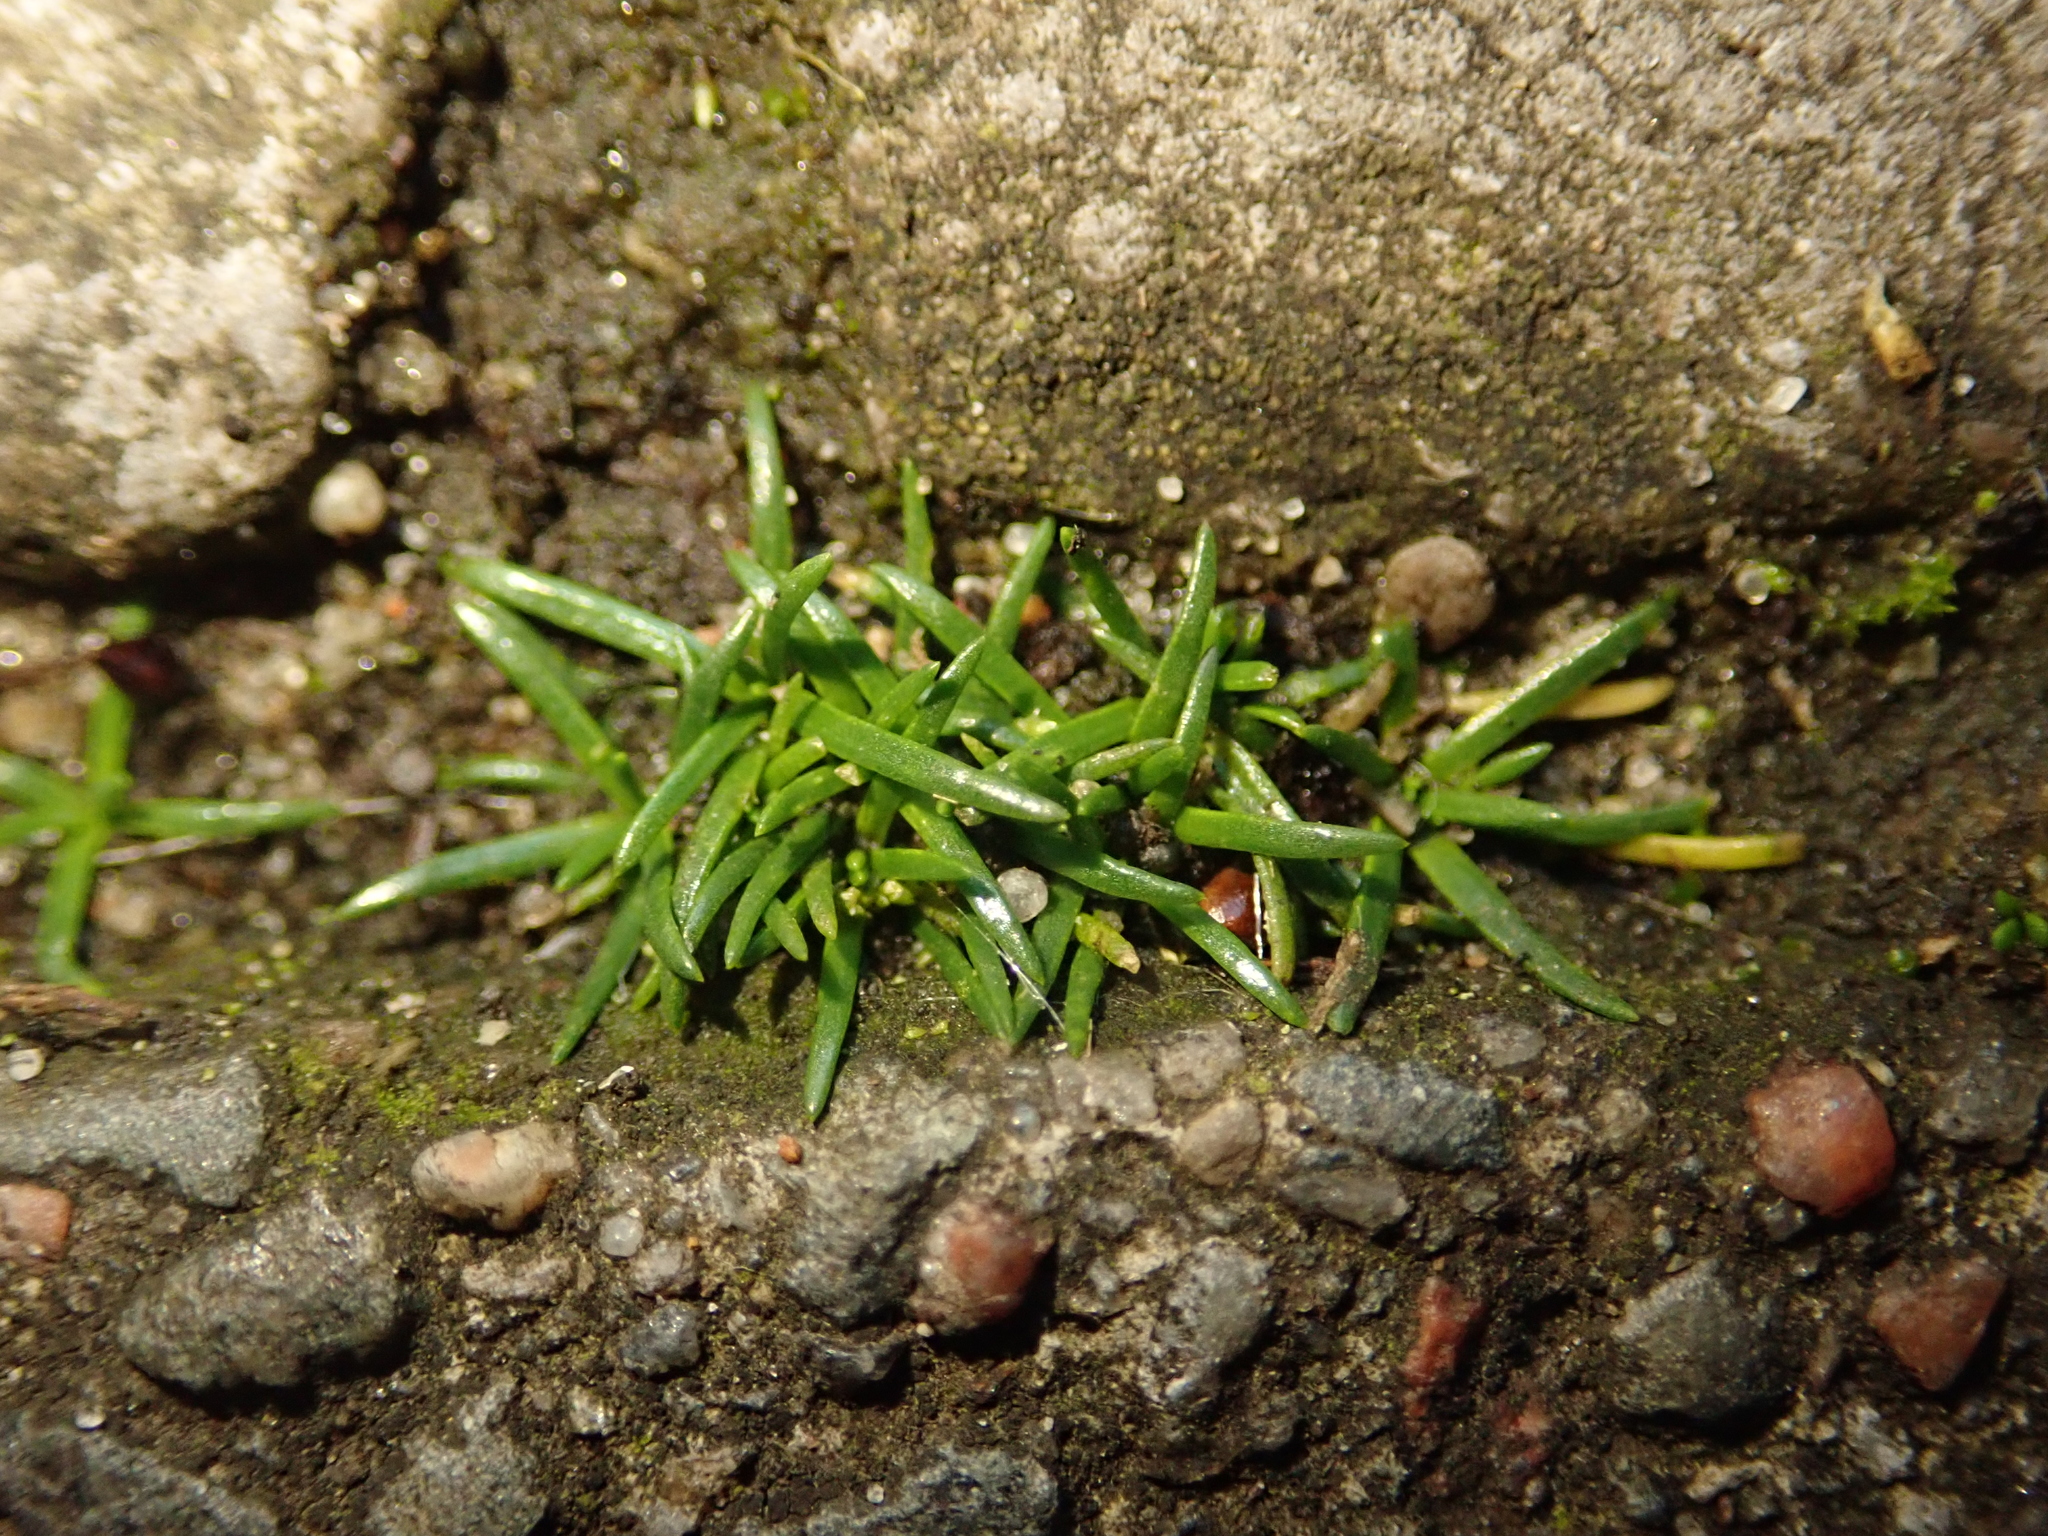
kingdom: Plantae
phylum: Tracheophyta
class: Magnoliopsida
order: Caryophyllales
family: Caryophyllaceae
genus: Sagina
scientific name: Sagina procumbens
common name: Procumbent pearlwort
